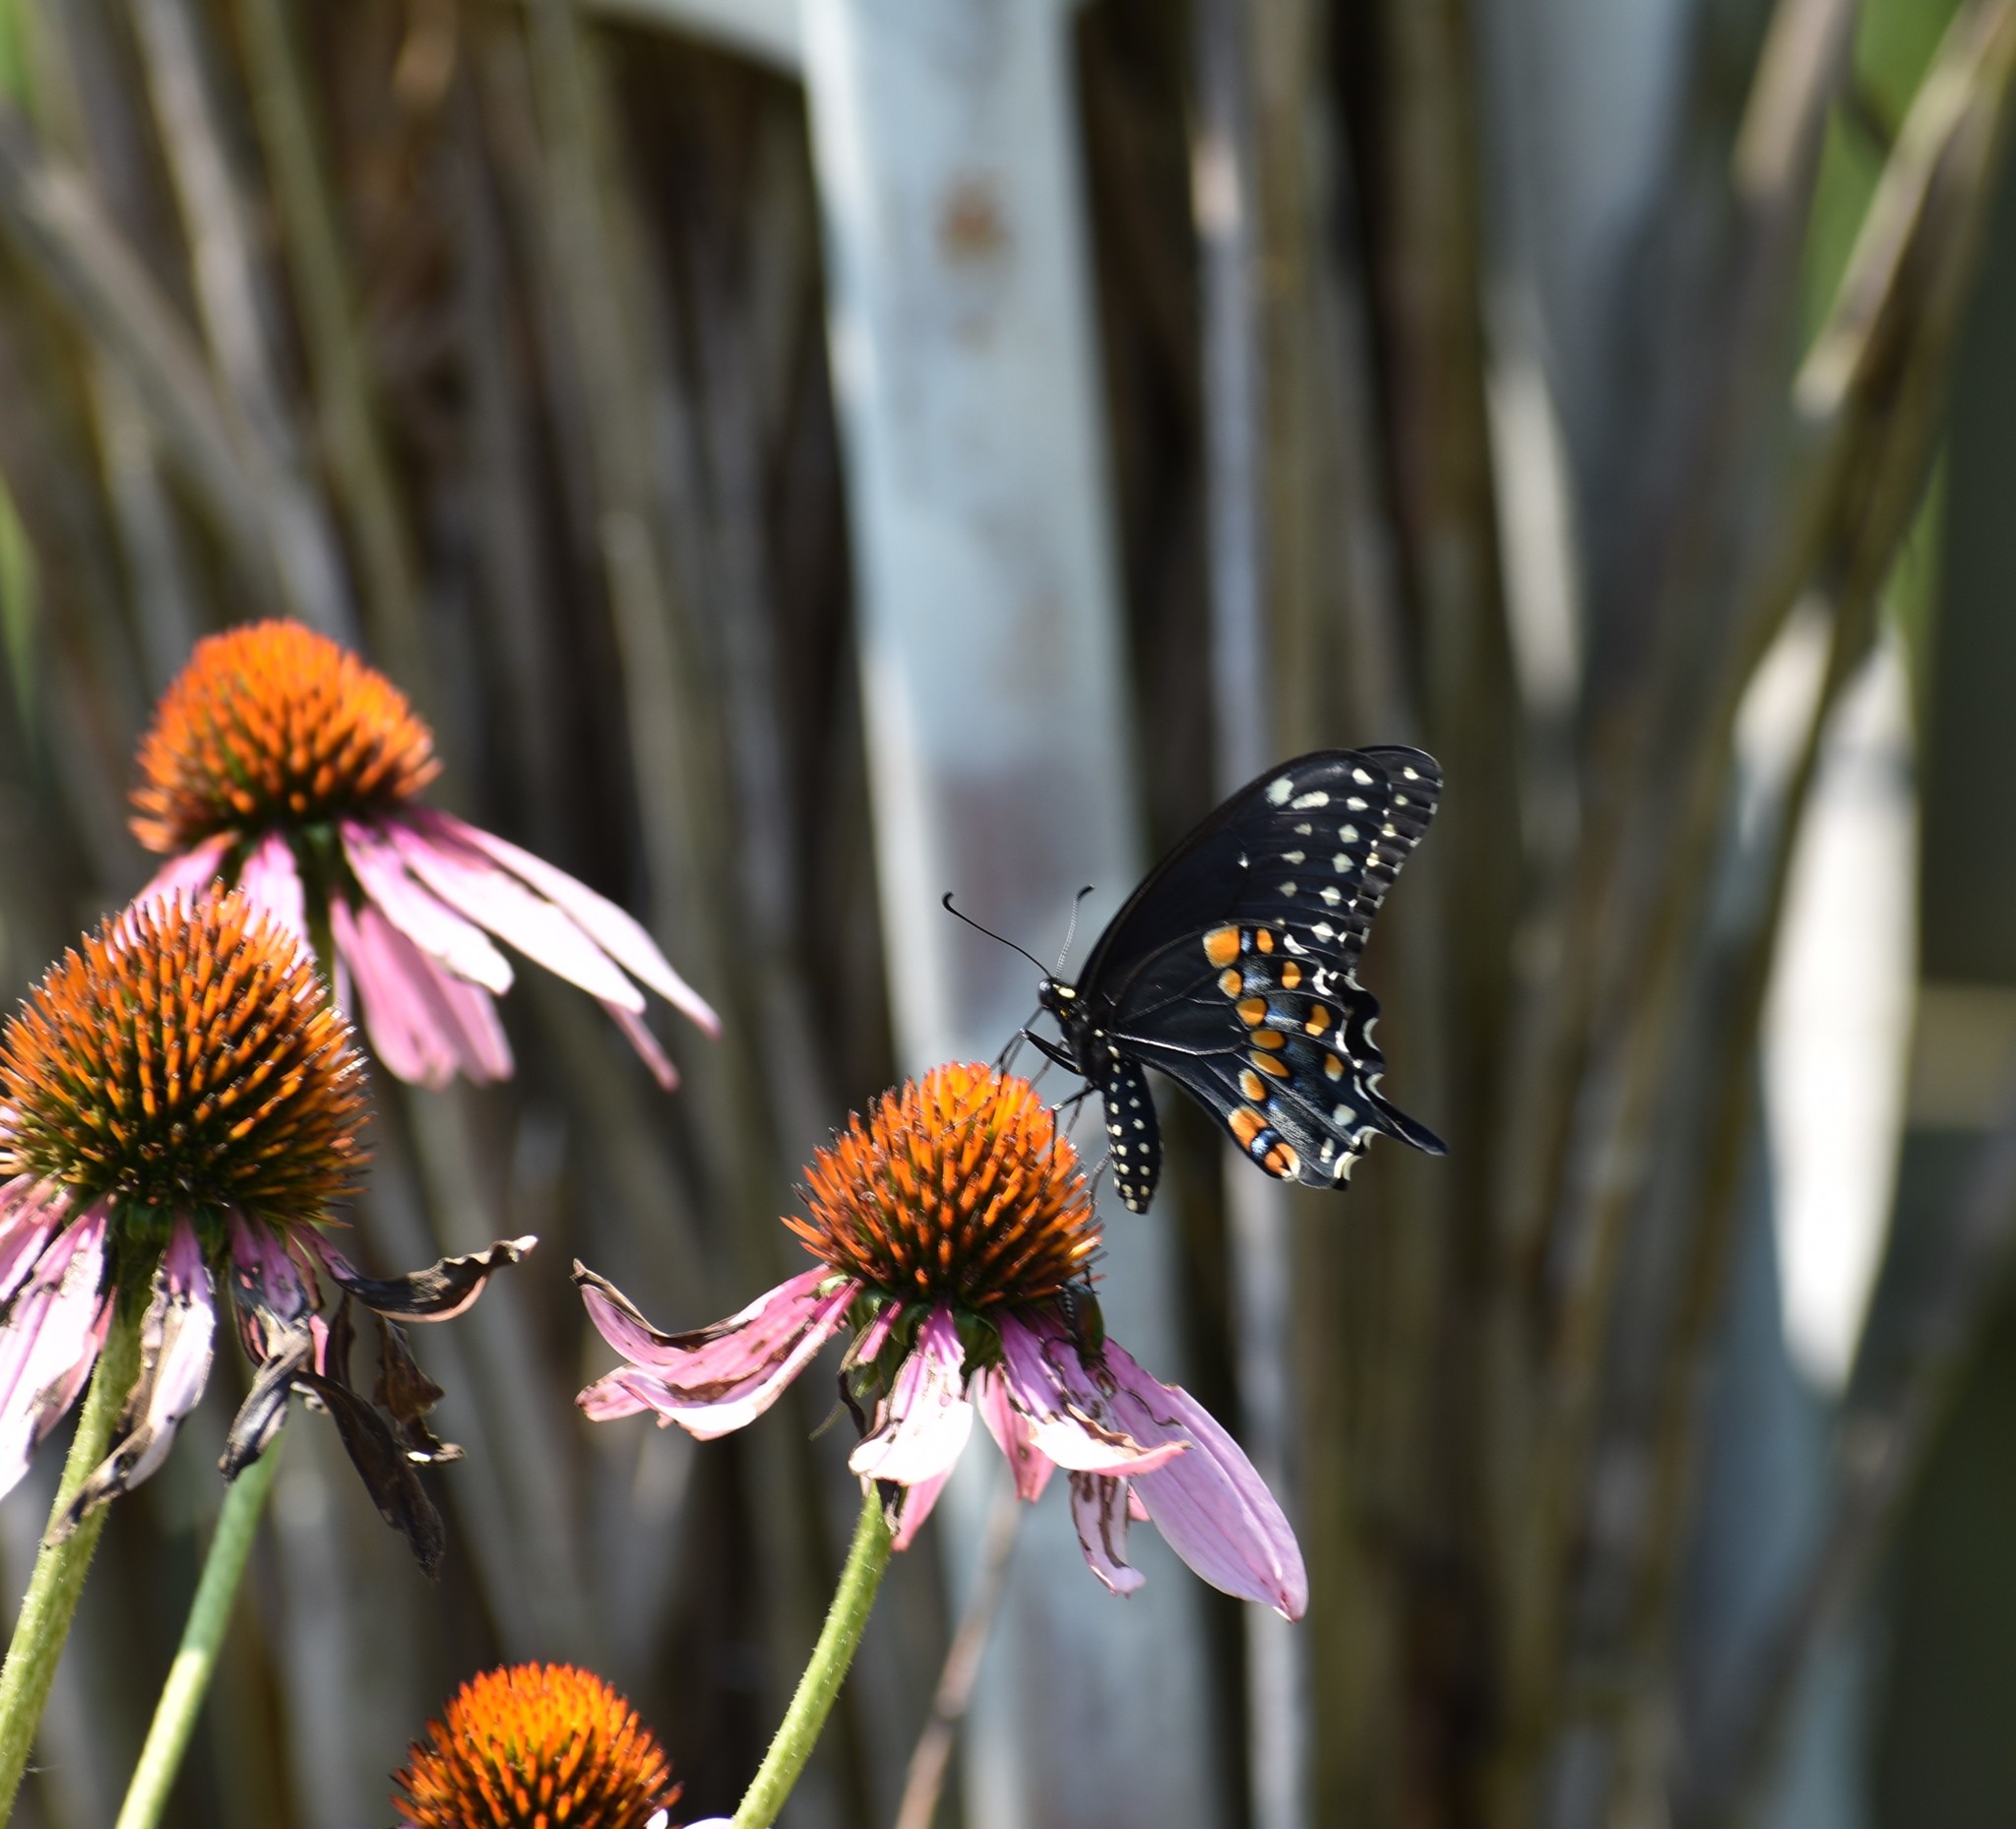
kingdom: Animalia
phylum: Arthropoda
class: Insecta
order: Lepidoptera
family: Papilionidae
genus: Papilio
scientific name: Papilio polyxenes
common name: Black swallowtail
